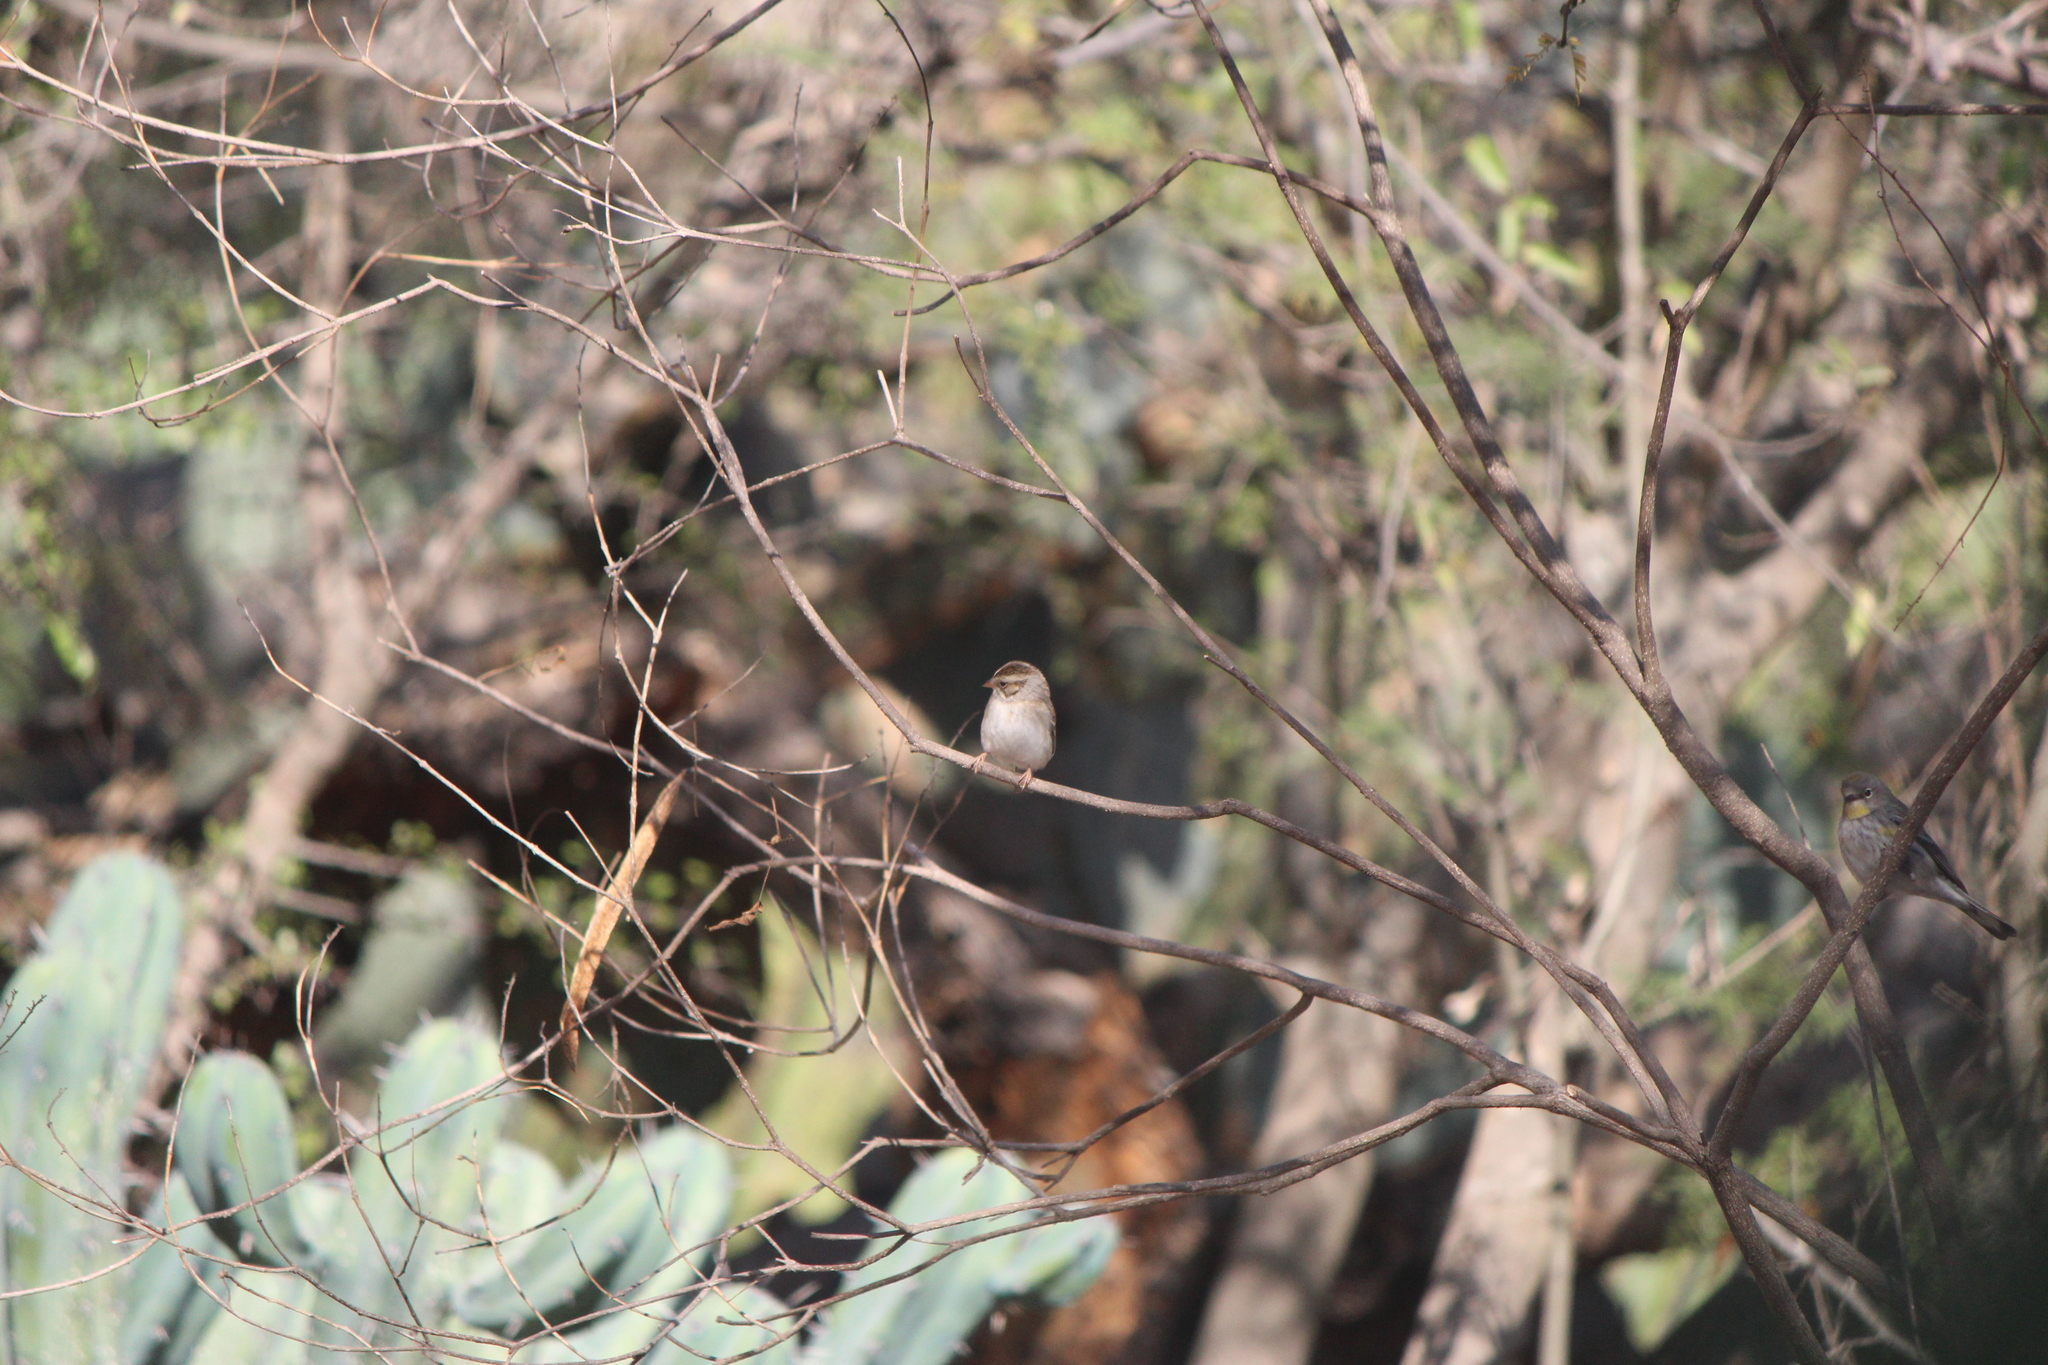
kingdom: Animalia
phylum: Chordata
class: Aves
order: Passeriformes
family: Passerellidae
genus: Spizella
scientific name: Spizella pallida
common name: Clay-colored sparrow
